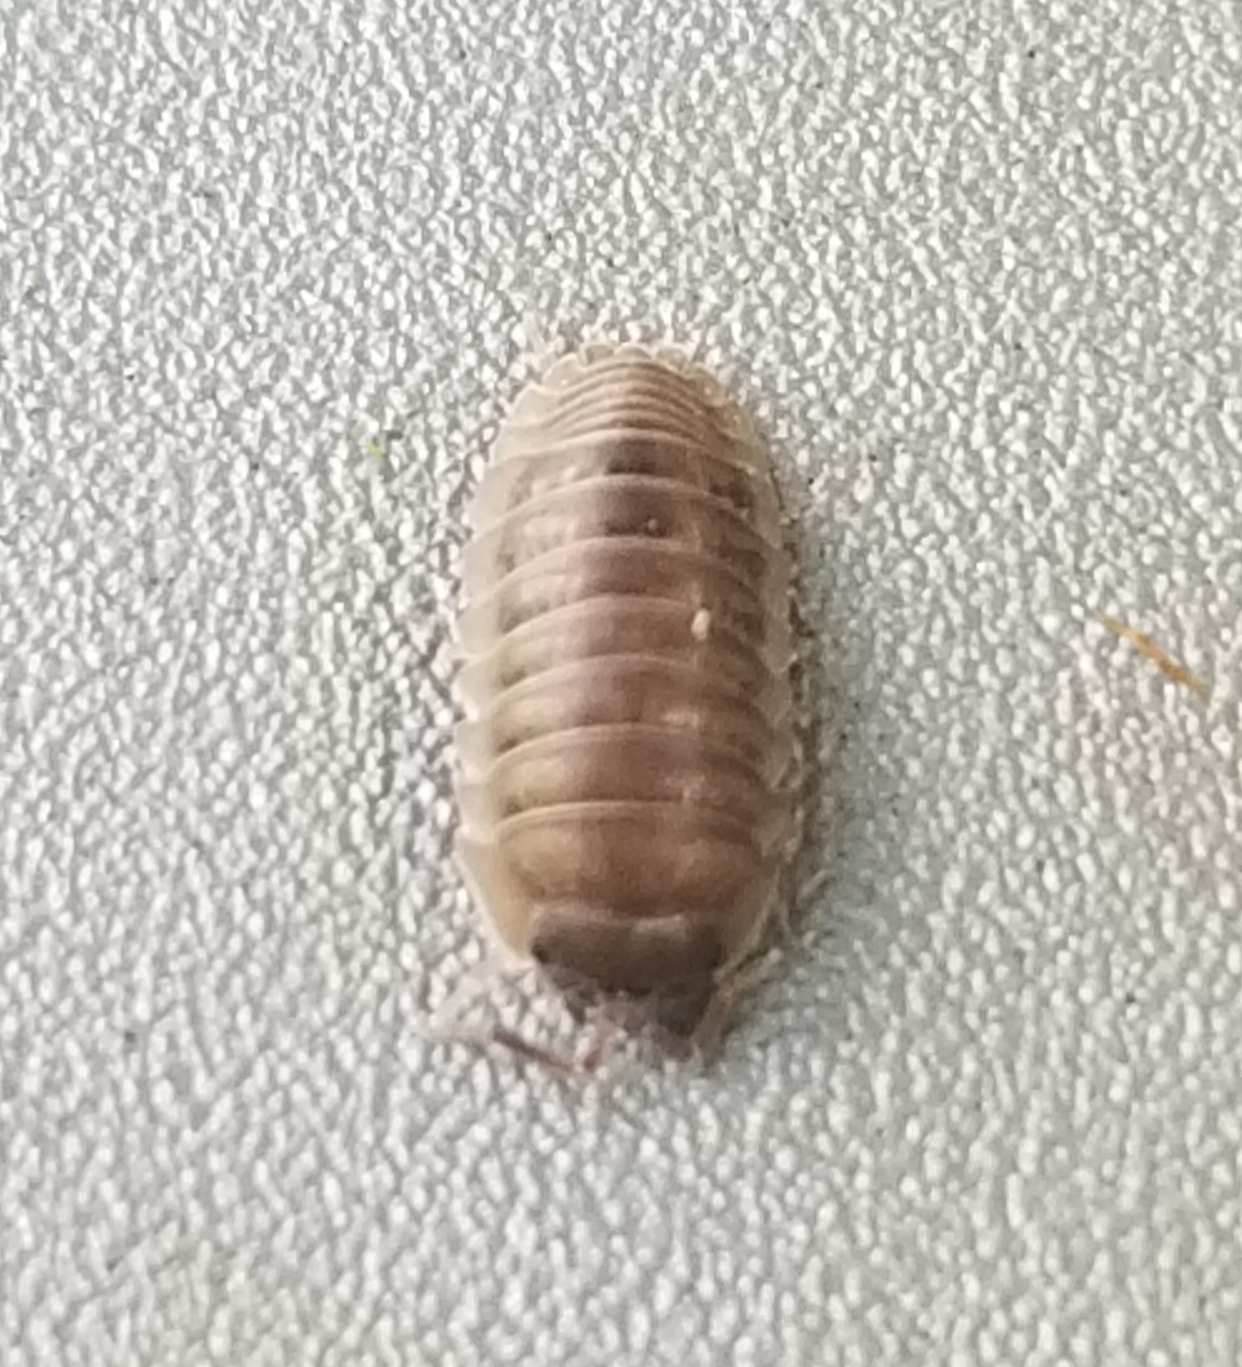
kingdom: Animalia
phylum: Arthropoda
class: Malacostraca
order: Isopoda
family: Armadillidiidae
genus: Armadillidium
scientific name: Armadillidium nasatum
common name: Isopod
